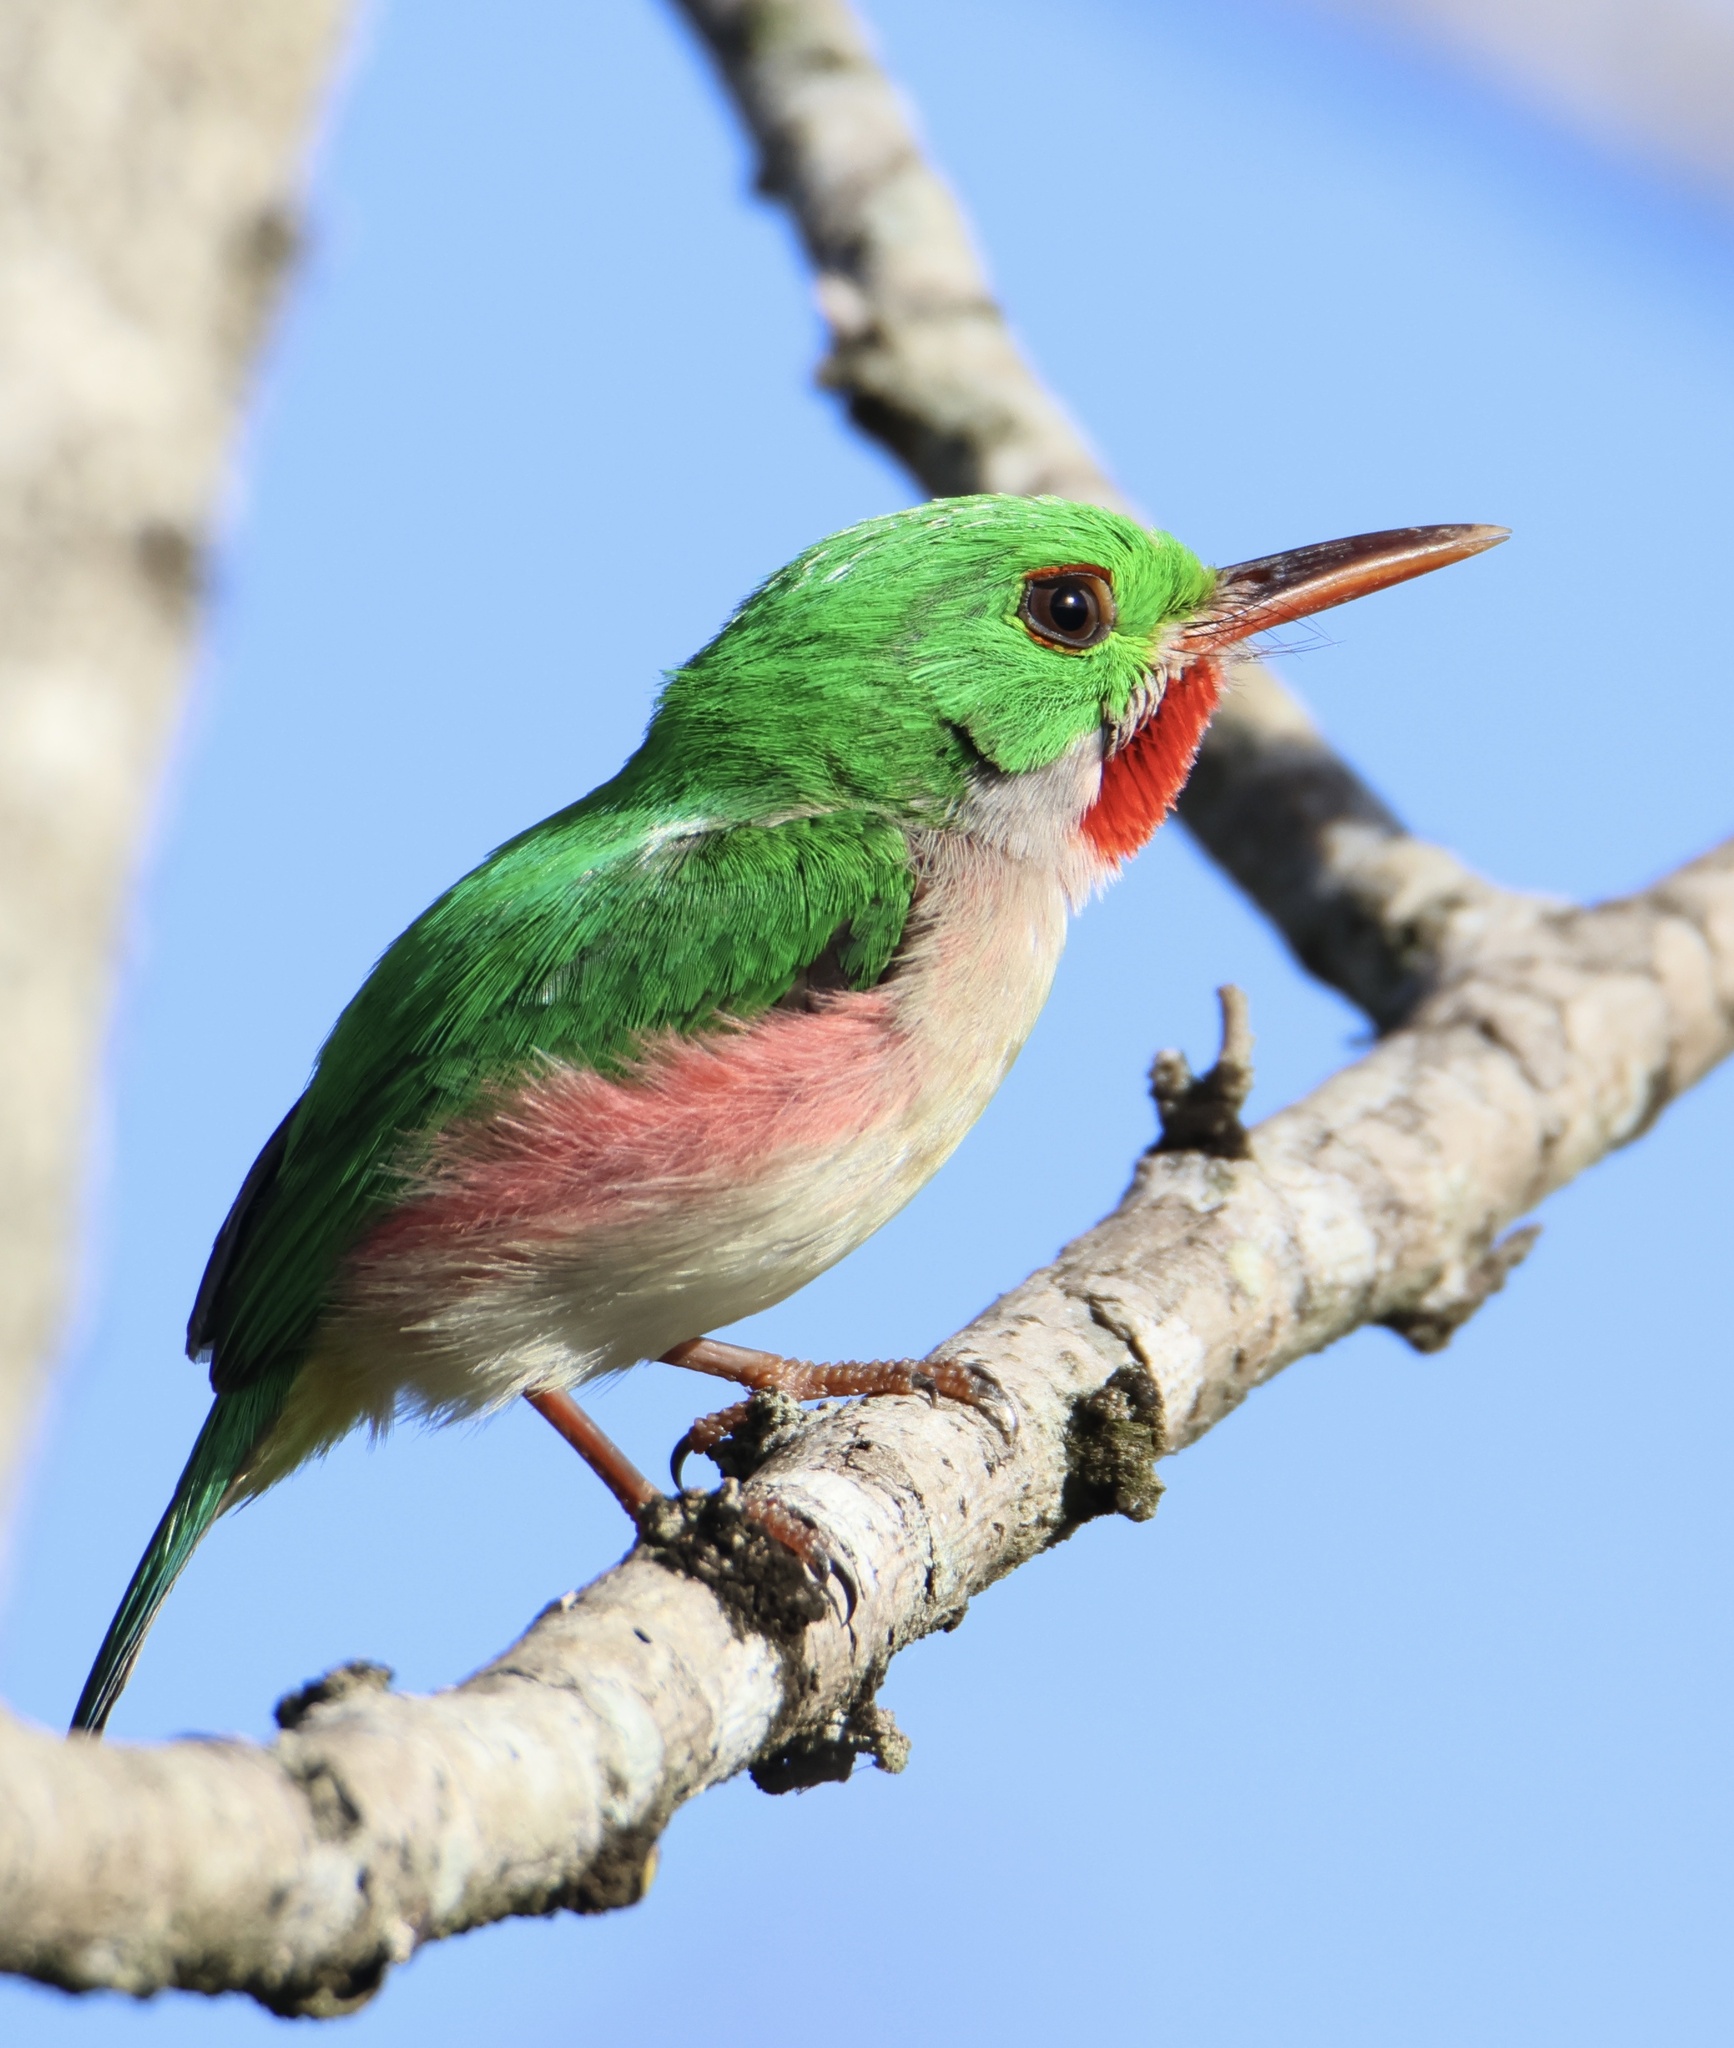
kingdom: Animalia
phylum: Chordata
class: Aves
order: Coraciiformes
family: Todidae
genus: Todus
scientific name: Todus subulatus
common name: Broad-billed tody
